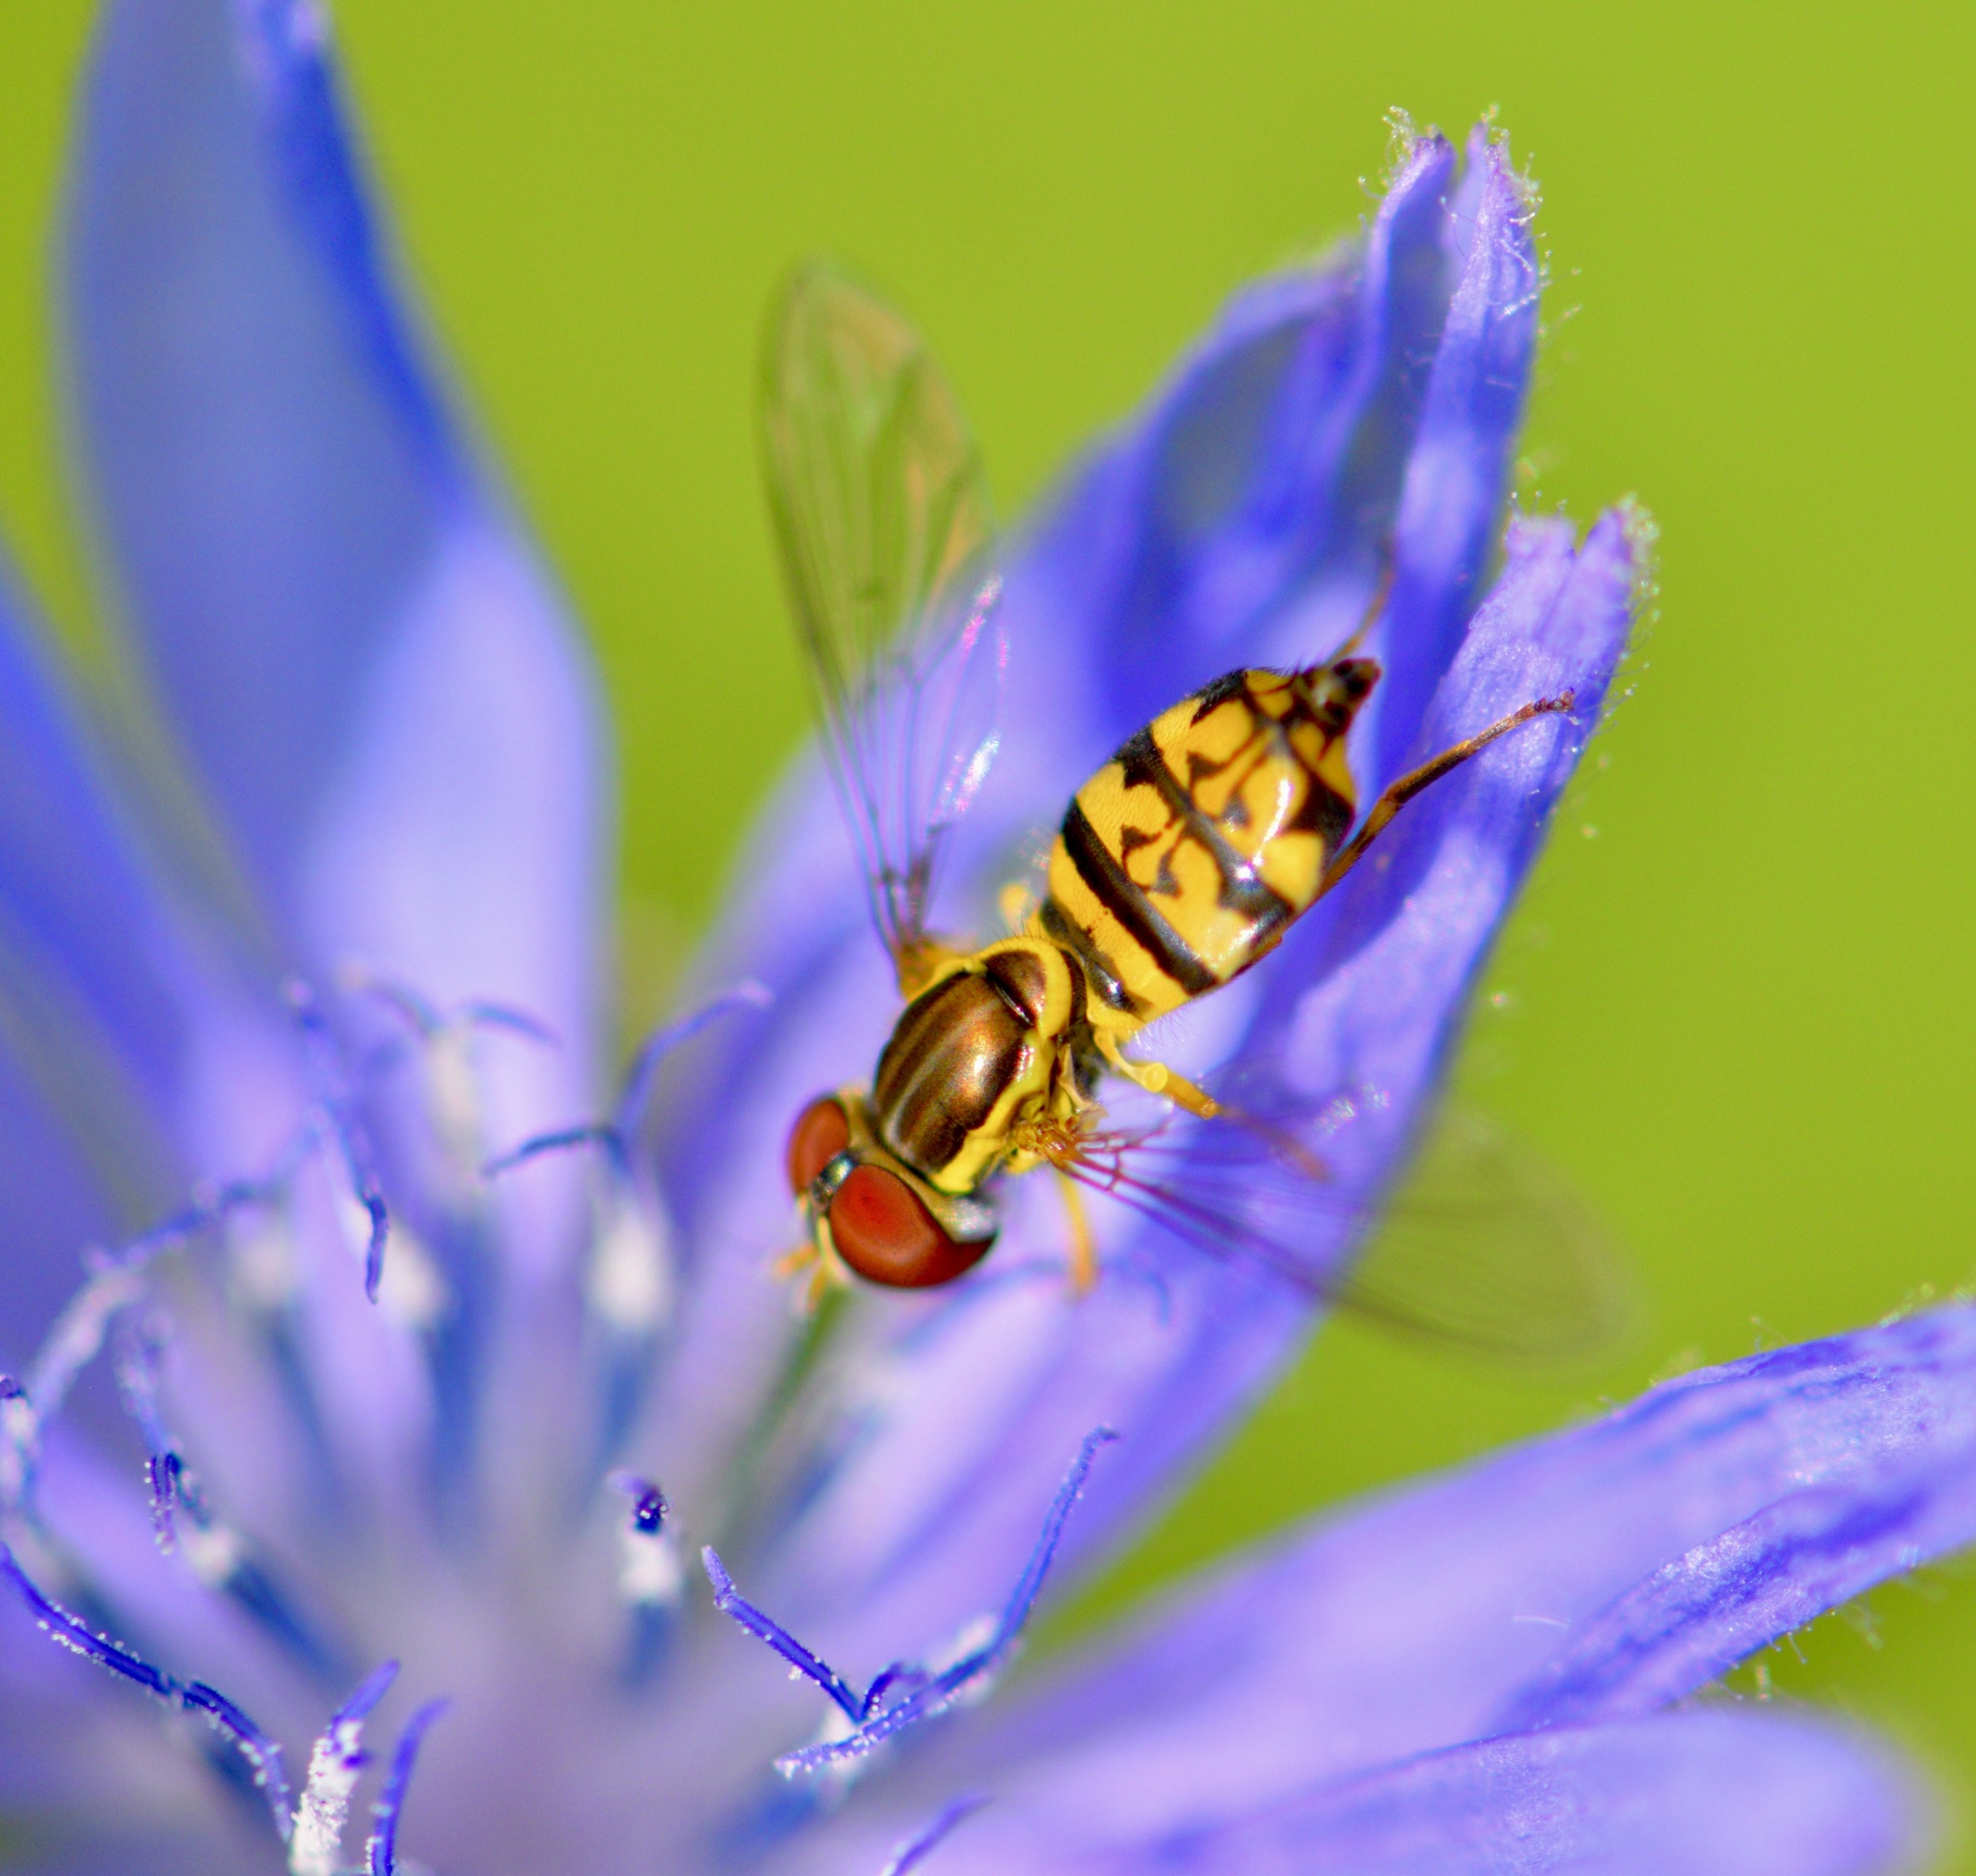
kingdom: Animalia
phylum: Arthropoda
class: Insecta
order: Diptera
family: Syrphidae
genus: Toxomerus
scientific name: Toxomerus geminatus
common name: Eastern calligrapher
